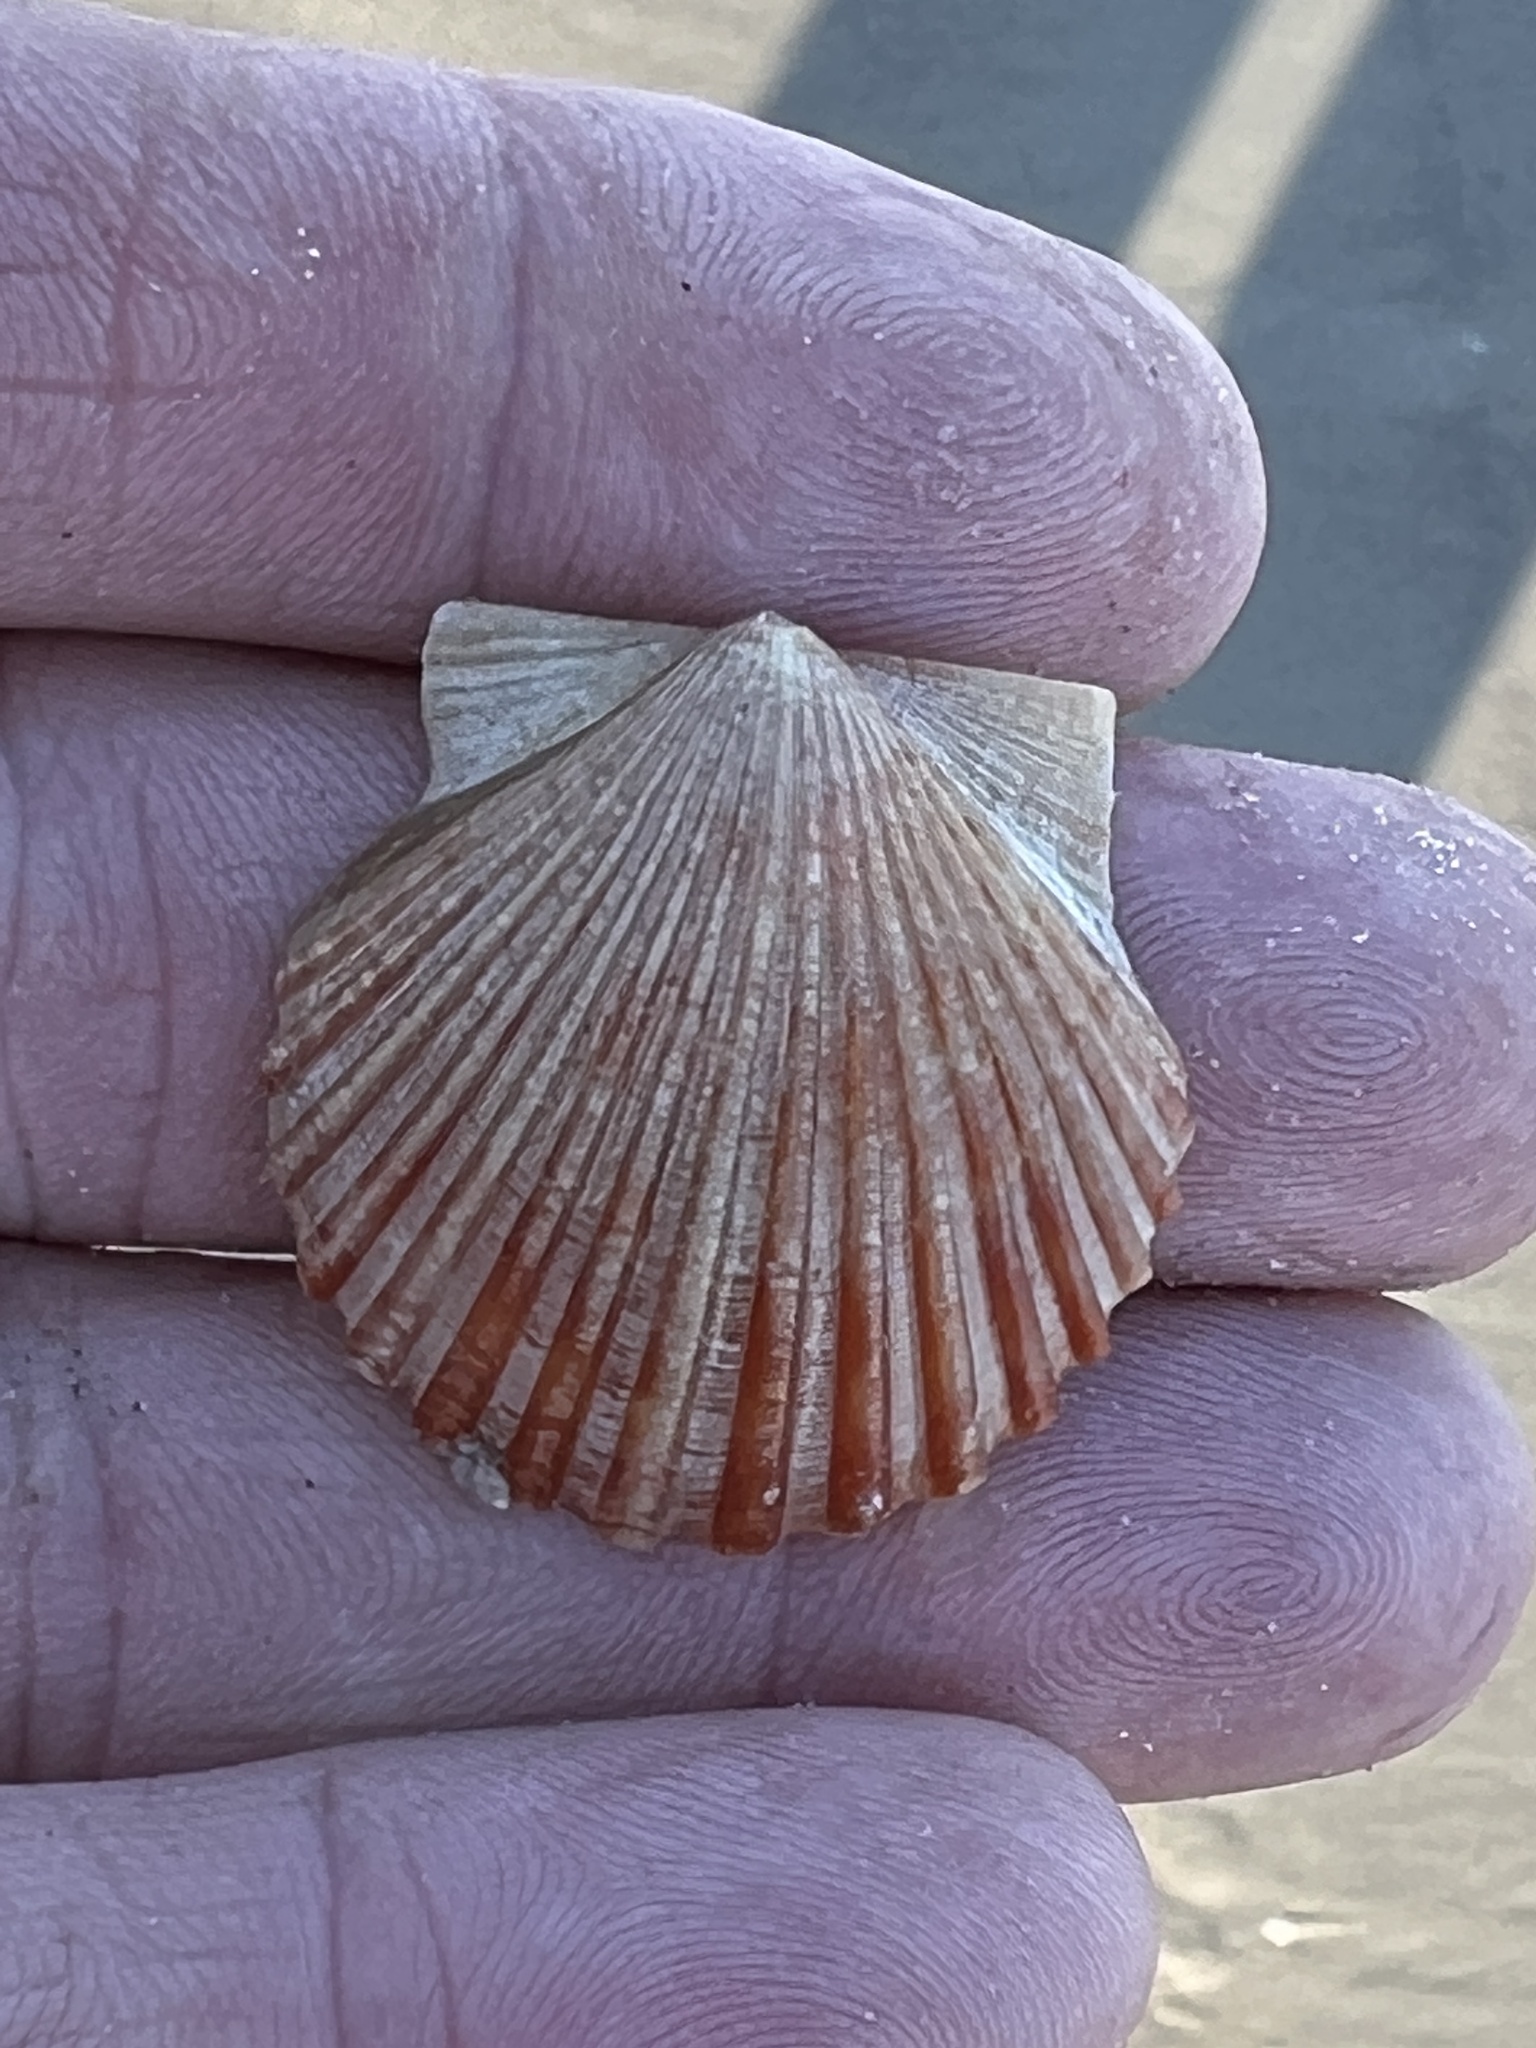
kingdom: Animalia
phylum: Mollusca
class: Bivalvia
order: Pectinida
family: Pectinidae
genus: Argopecten
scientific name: Argopecten irradians
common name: Atlantic bay scallop
